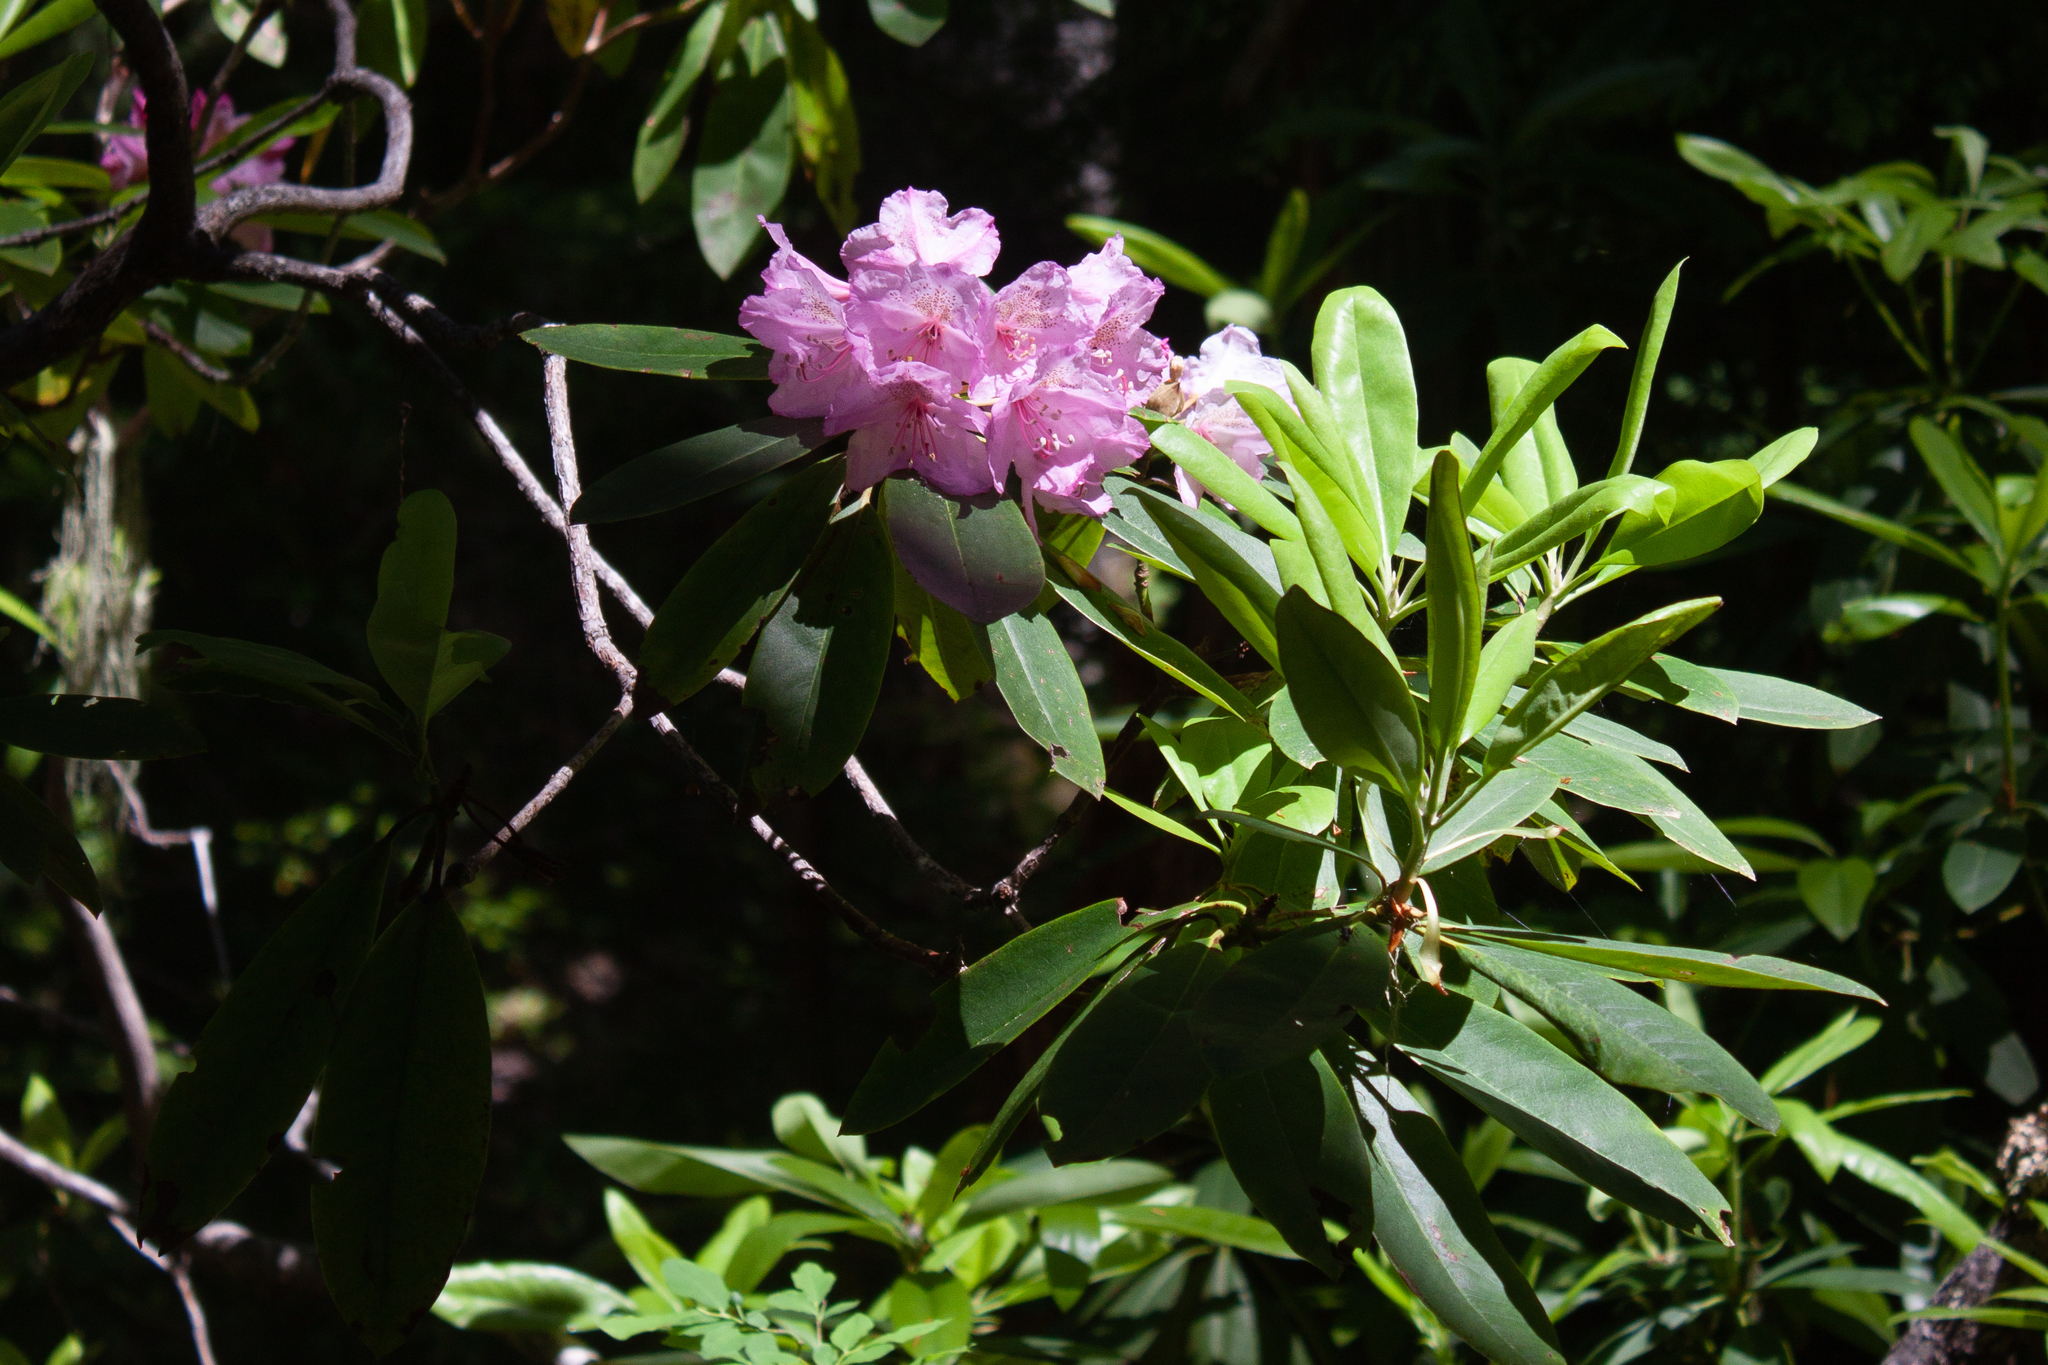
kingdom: Plantae
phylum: Tracheophyta
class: Magnoliopsida
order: Ericales
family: Ericaceae
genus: Rhododendron
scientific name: Rhododendron macrophyllum
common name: California rose bay
